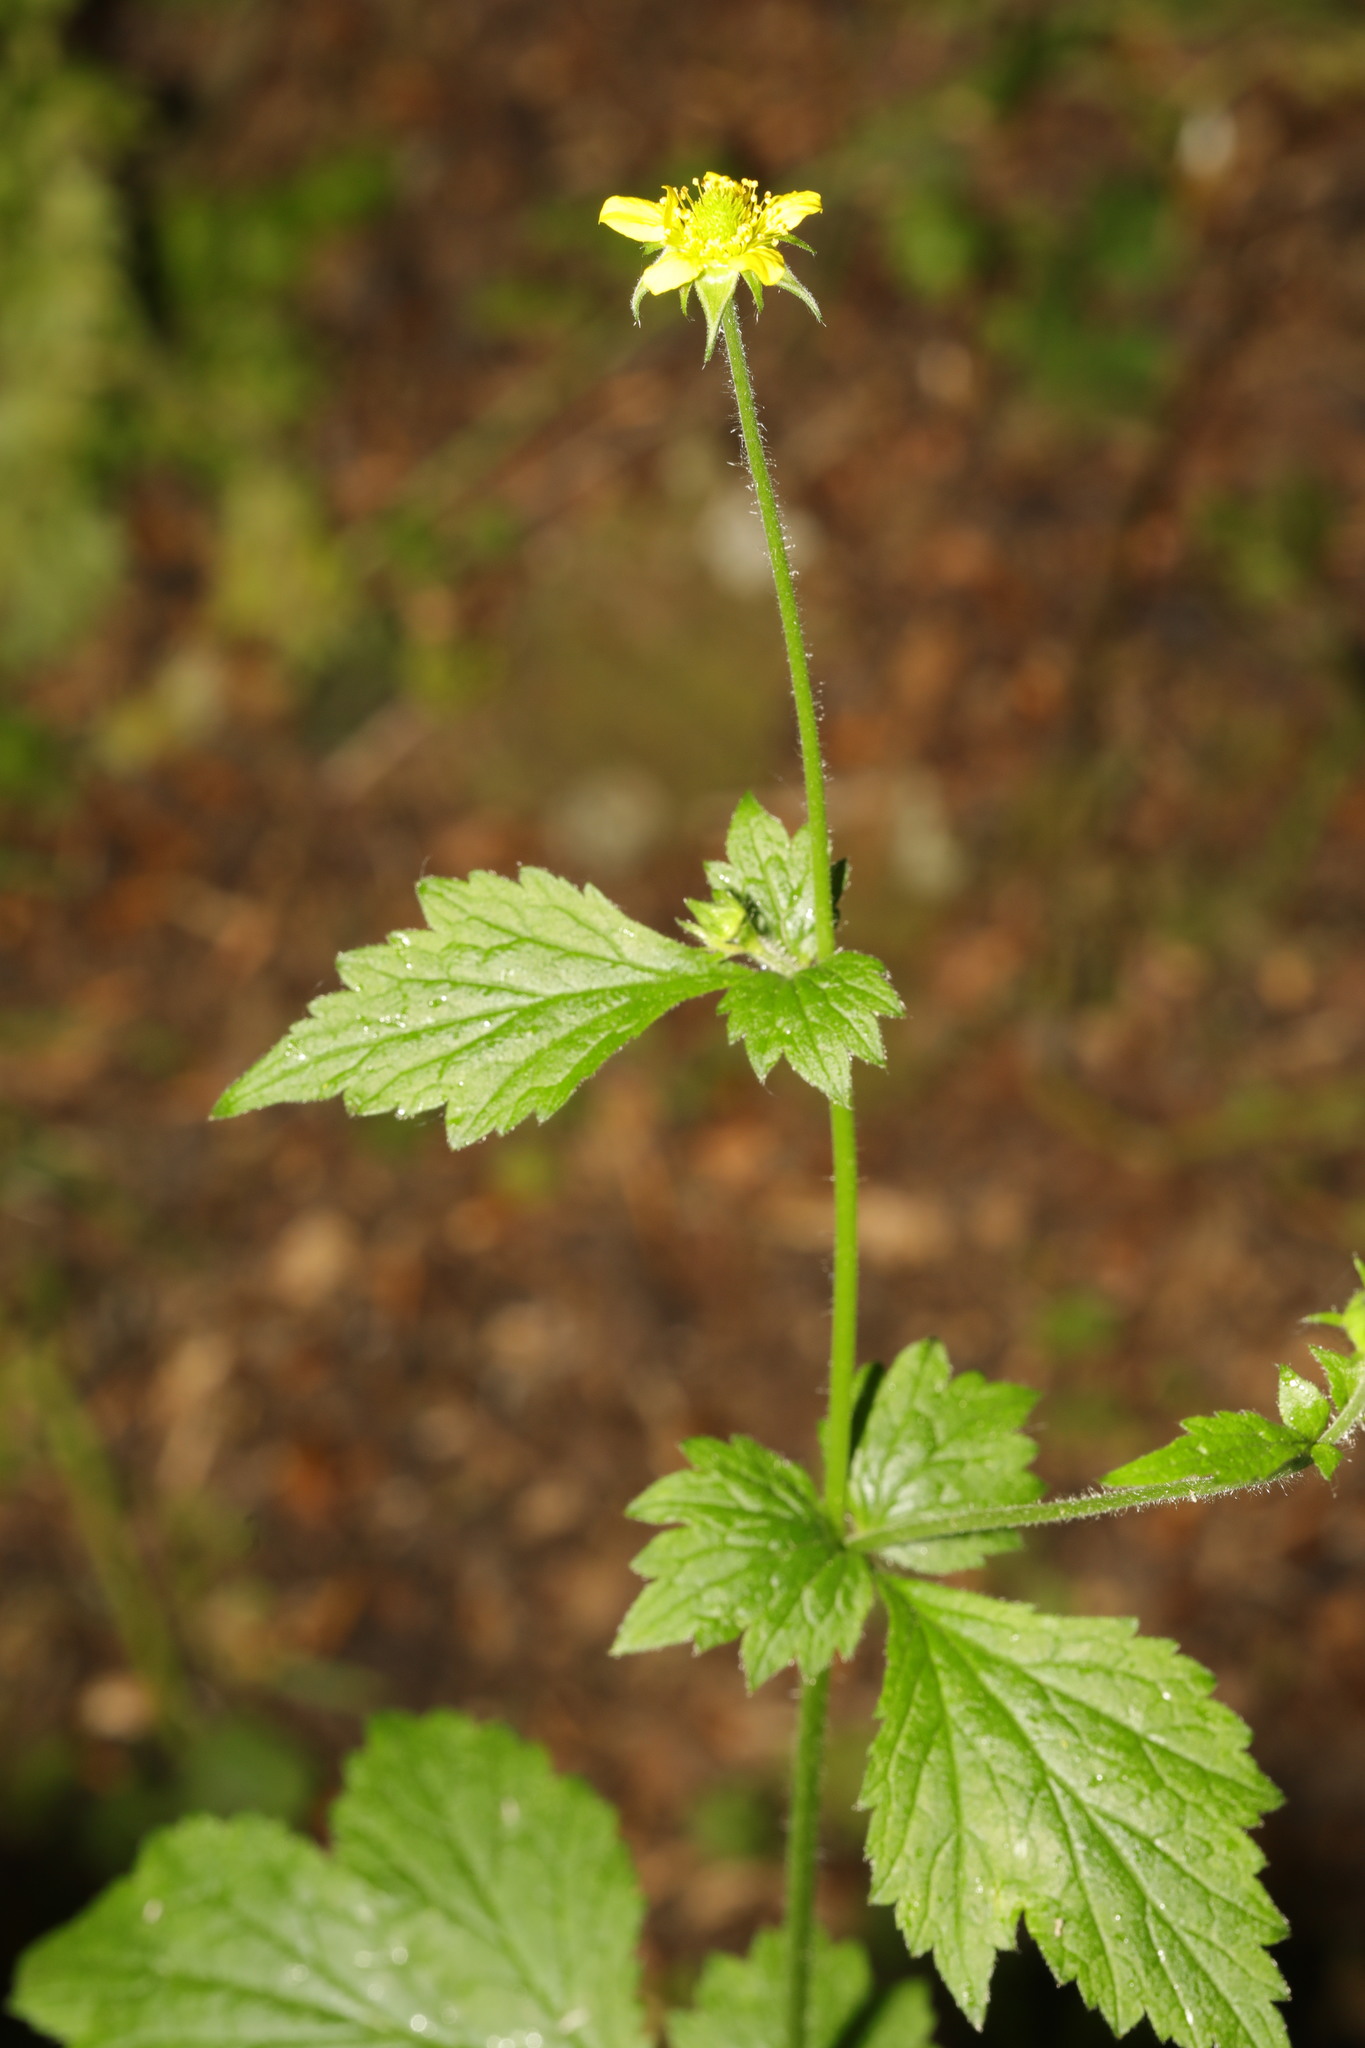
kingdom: Plantae
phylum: Tracheophyta
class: Magnoliopsida
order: Rosales
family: Rosaceae
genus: Geum
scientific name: Geum urbanum
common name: Wood avens
